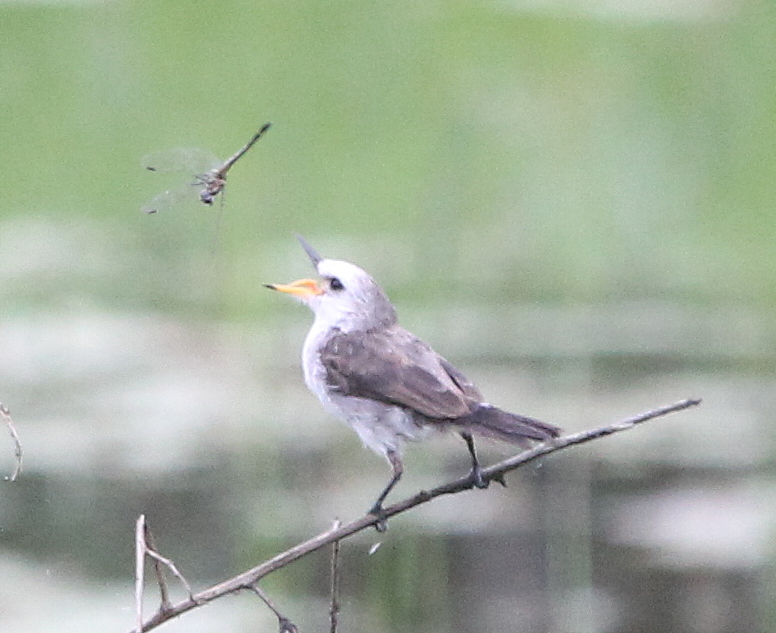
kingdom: Animalia
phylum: Chordata
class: Aves
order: Passeriformes
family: Tyrannidae
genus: Arundinicola
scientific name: Arundinicola leucocephala
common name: White-headed marsh tyrant
